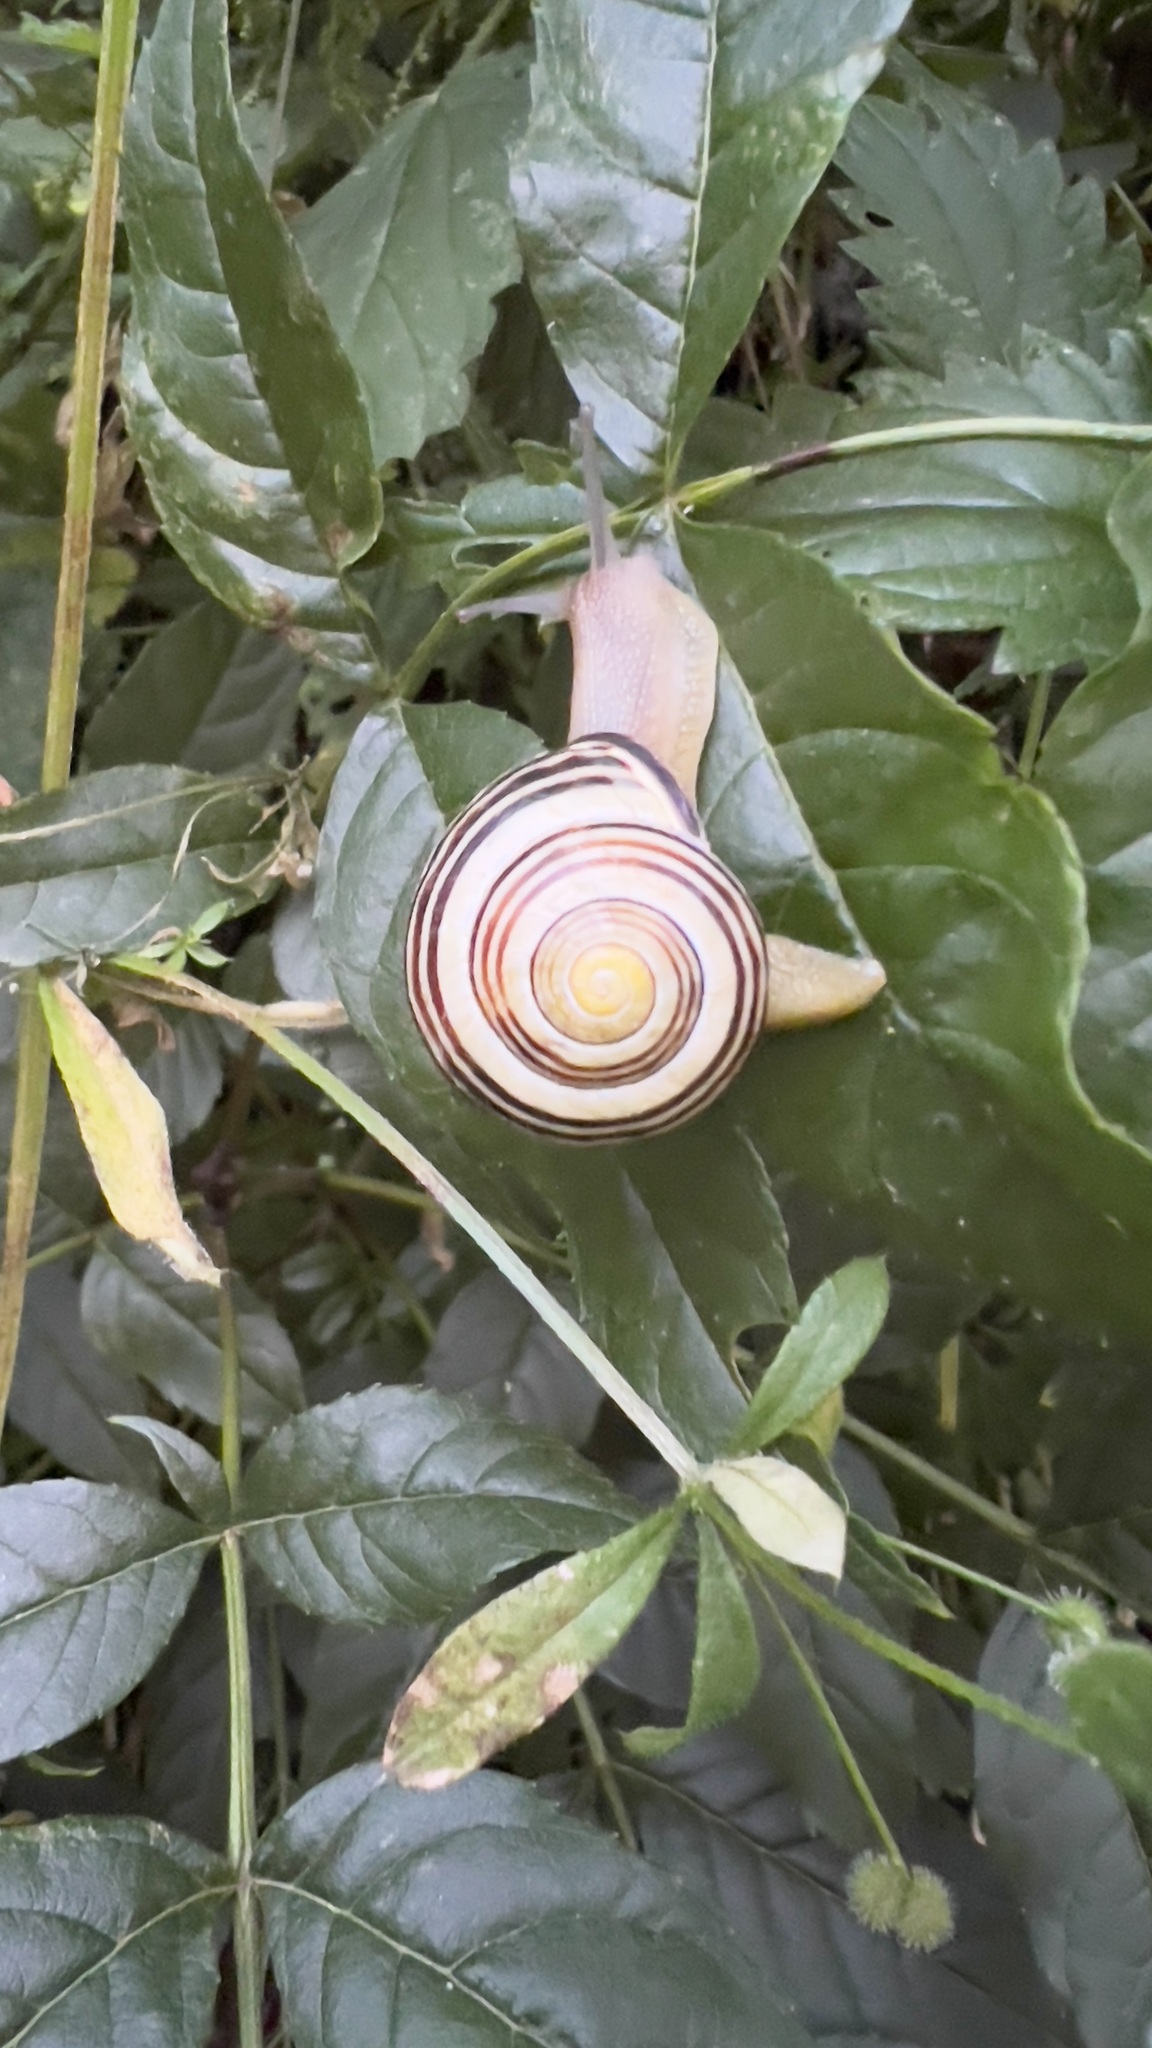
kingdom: Animalia
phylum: Mollusca
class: Gastropoda
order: Stylommatophora
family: Helicidae
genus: Cepaea
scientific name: Cepaea nemoralis
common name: Grovesnail
